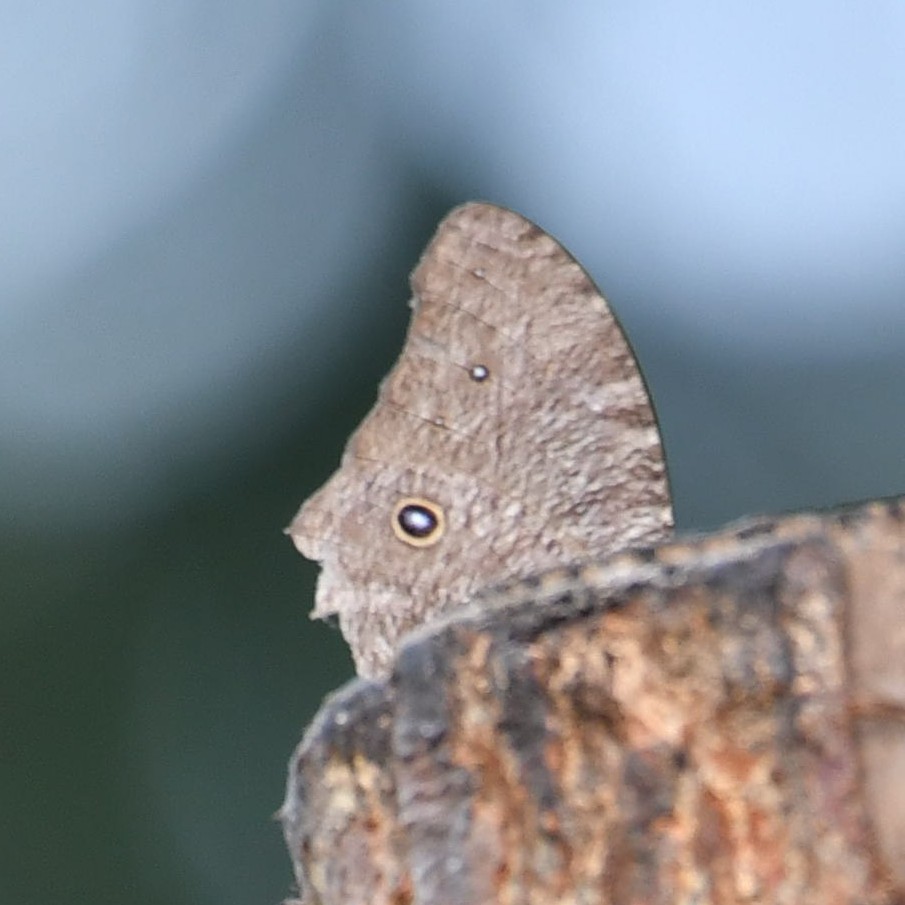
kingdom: Animalia
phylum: Arthropoda
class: Insecta
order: Lepidoptera
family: Nymphalidae
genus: Melanitis
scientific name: Melanitis leda
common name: Twilight brown
